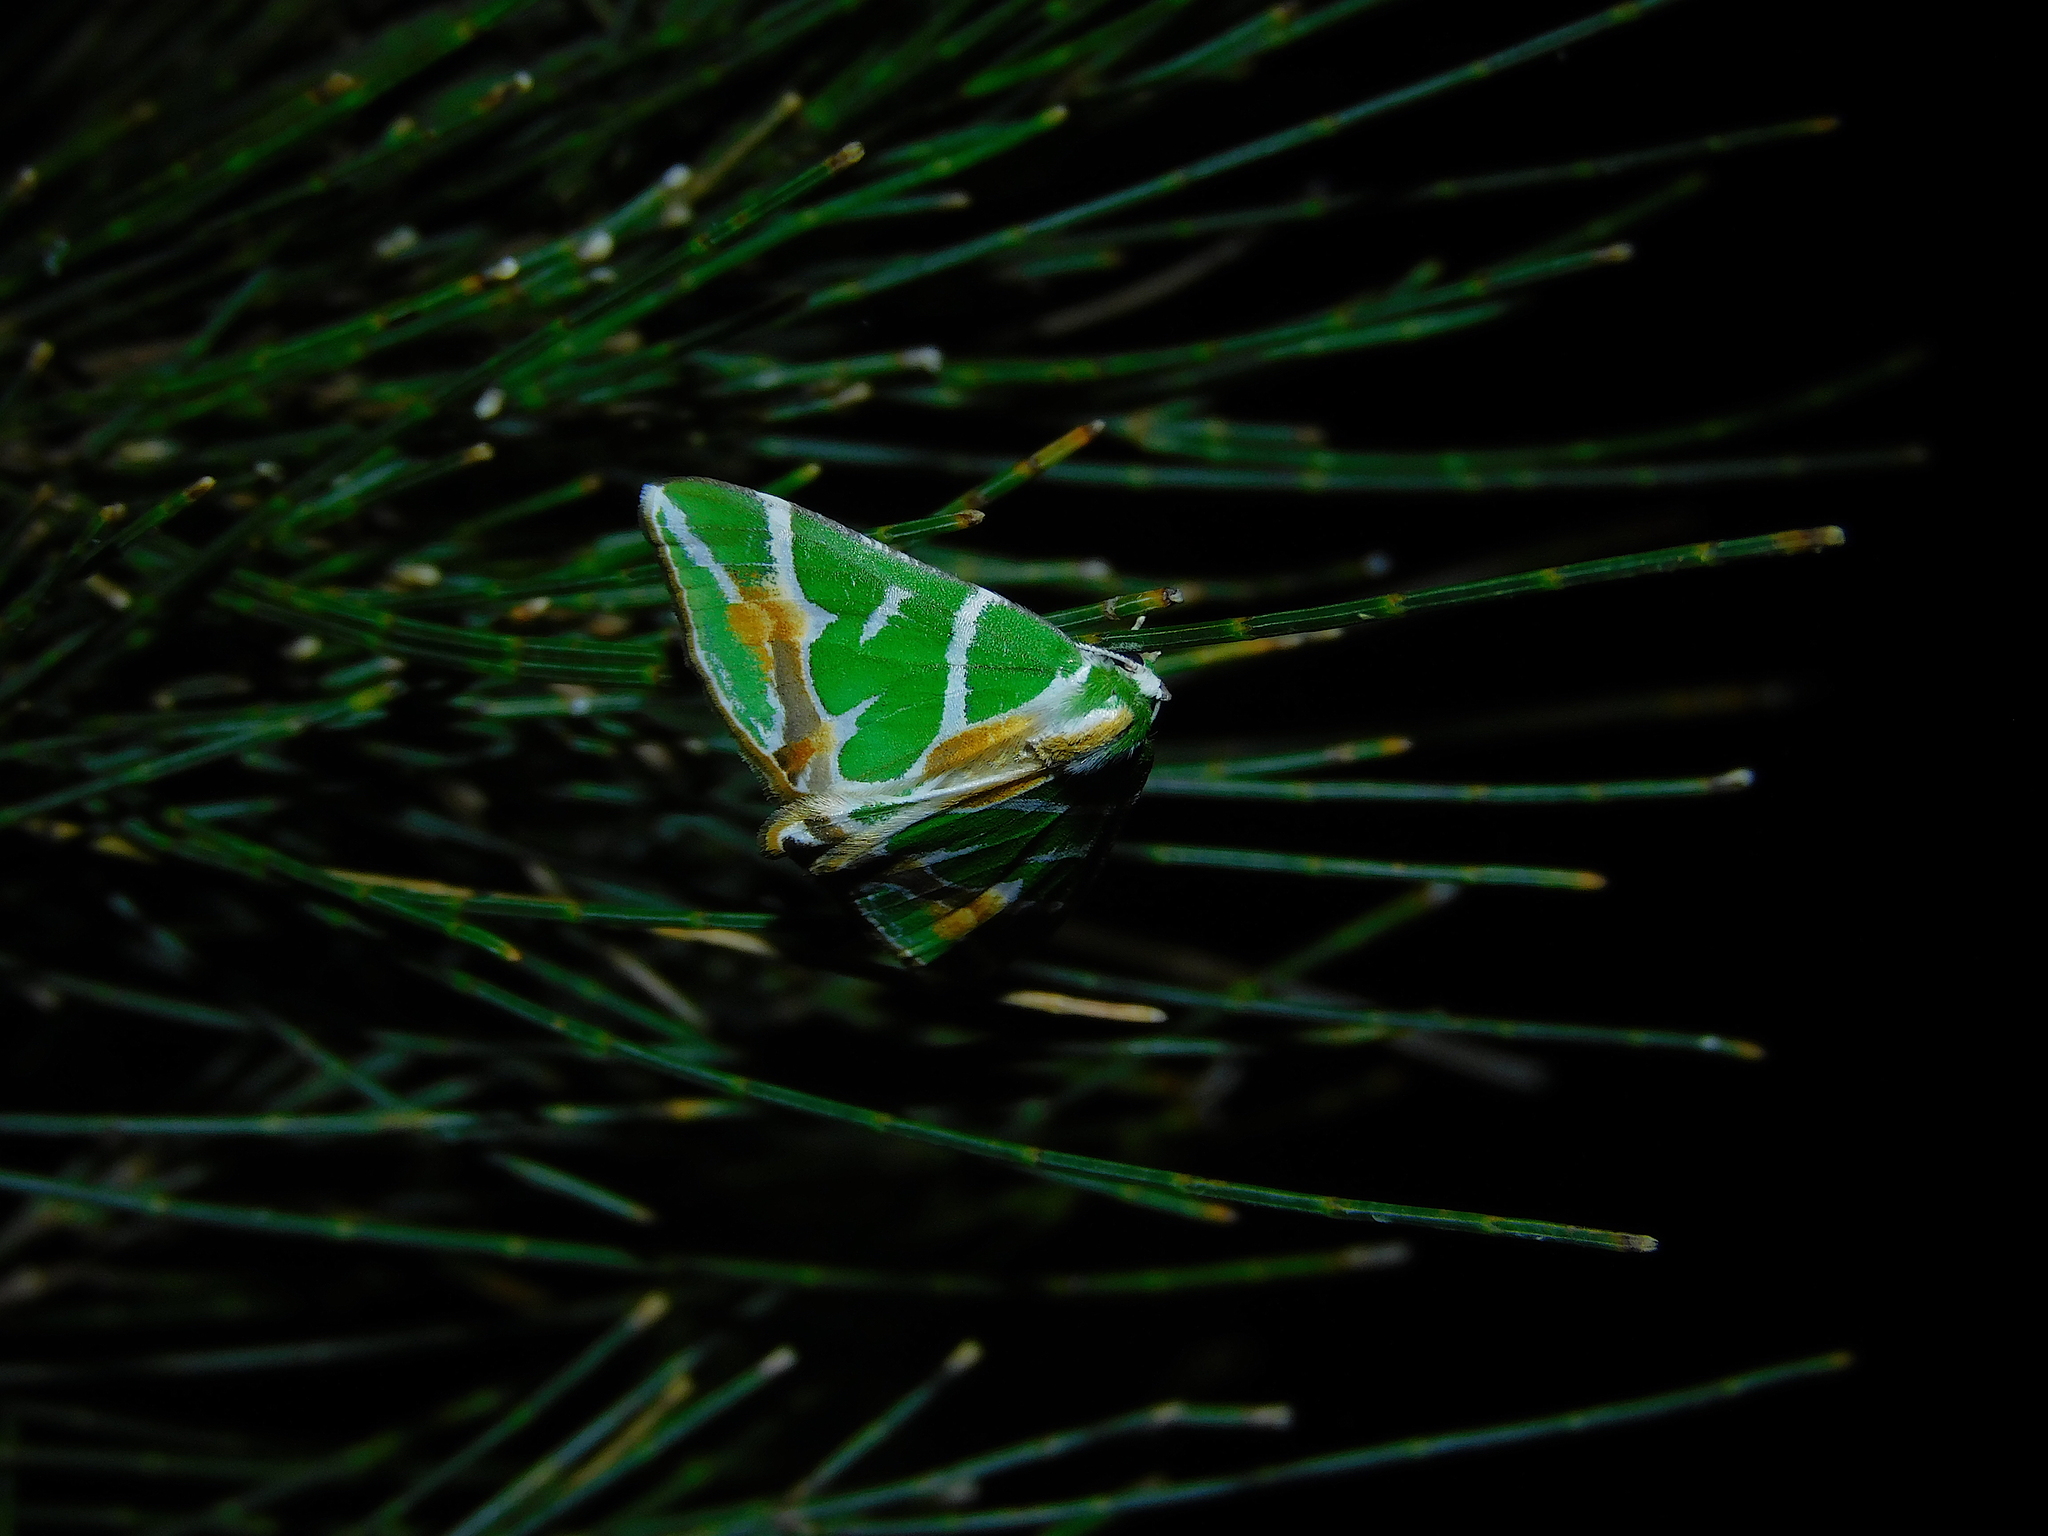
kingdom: Animalia
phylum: Arthropoda
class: Insecta
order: Lepidoptera
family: Geometridae
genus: Chlorodes
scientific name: Chlorodes boisduvalaria
